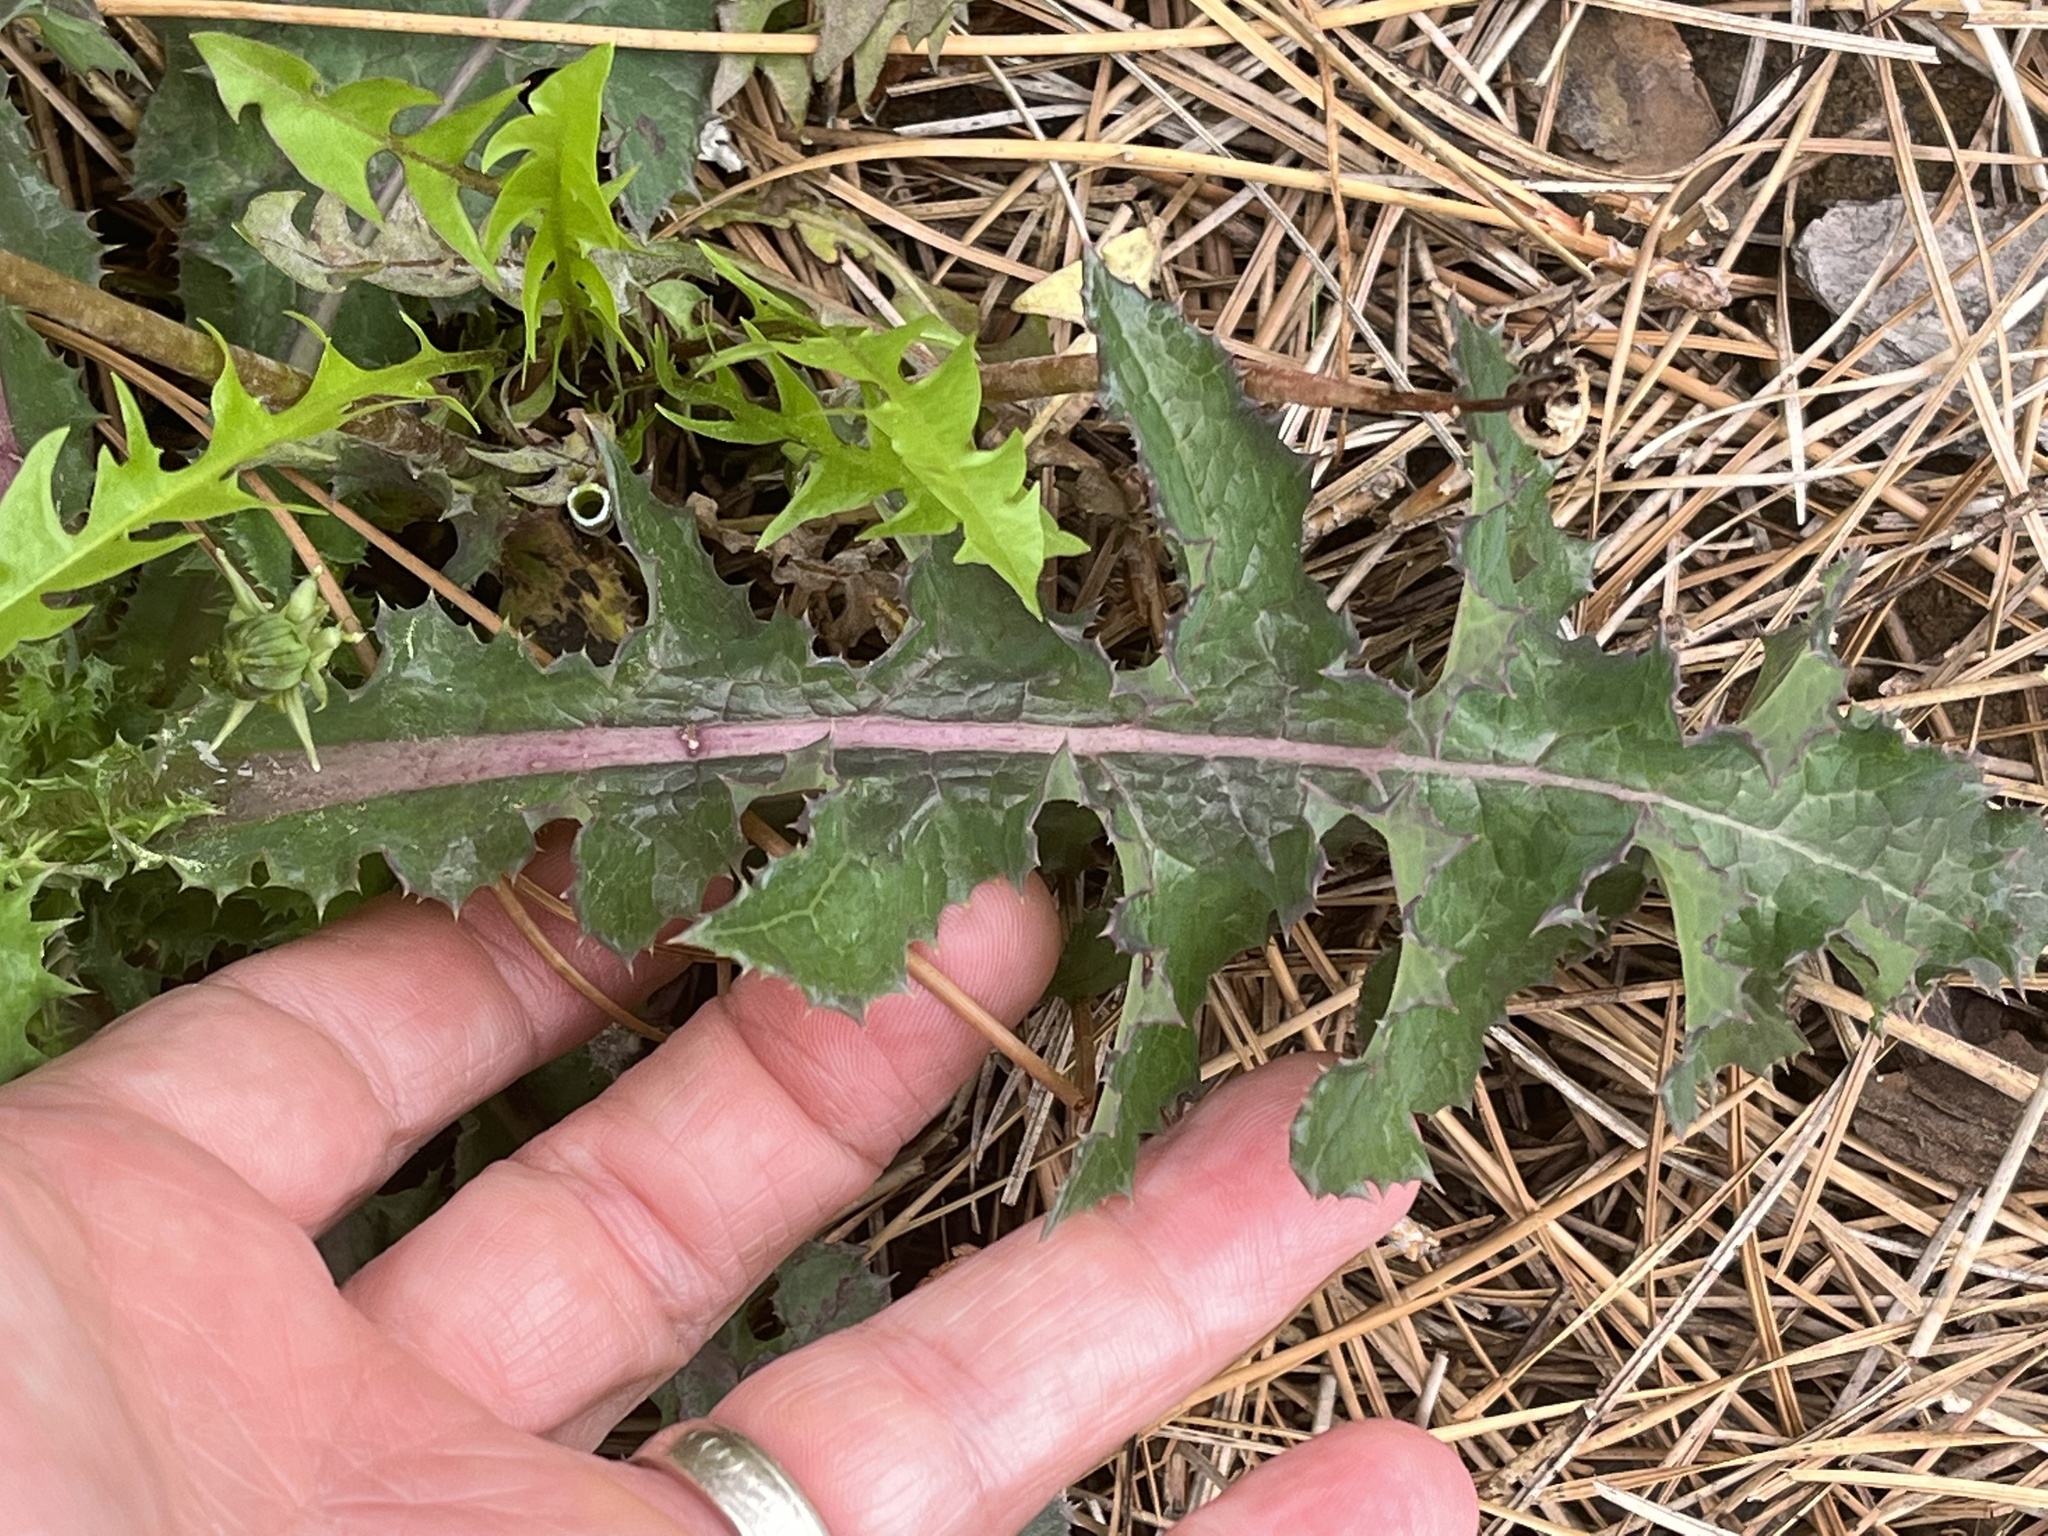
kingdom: Plantae
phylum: Tracheophyta
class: Magnoliopsida
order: Asterales
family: Asteraceae
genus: Sonchus
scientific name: Sonchus asper
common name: Prickly sow-thistle
